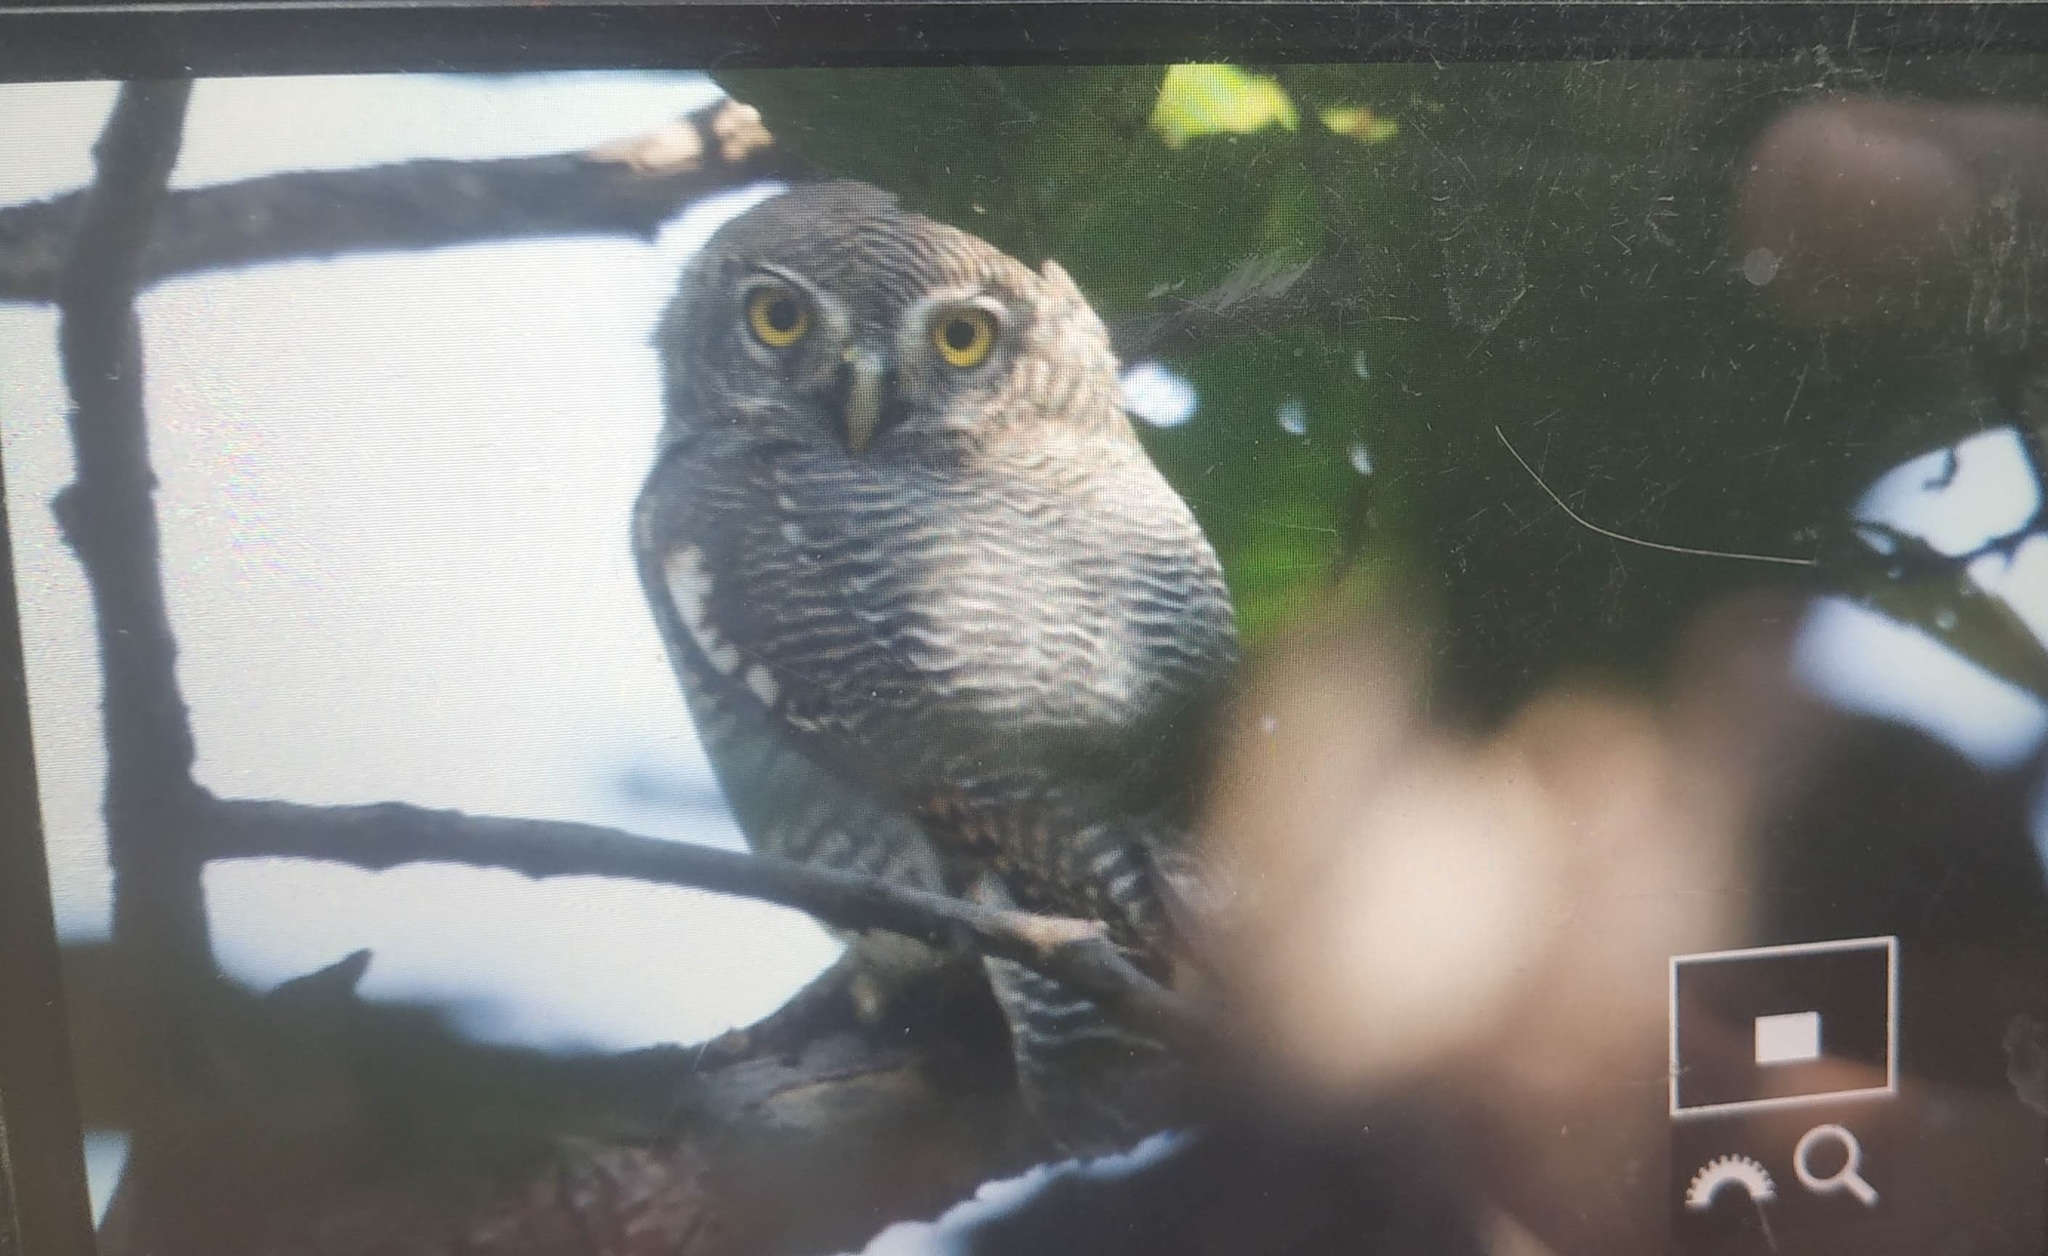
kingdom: Animalia
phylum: Chordata
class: Aves
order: Strigiformes
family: Strigidae
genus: Glaucidium
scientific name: Glaucidium radiatum
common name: Jungle owlet
